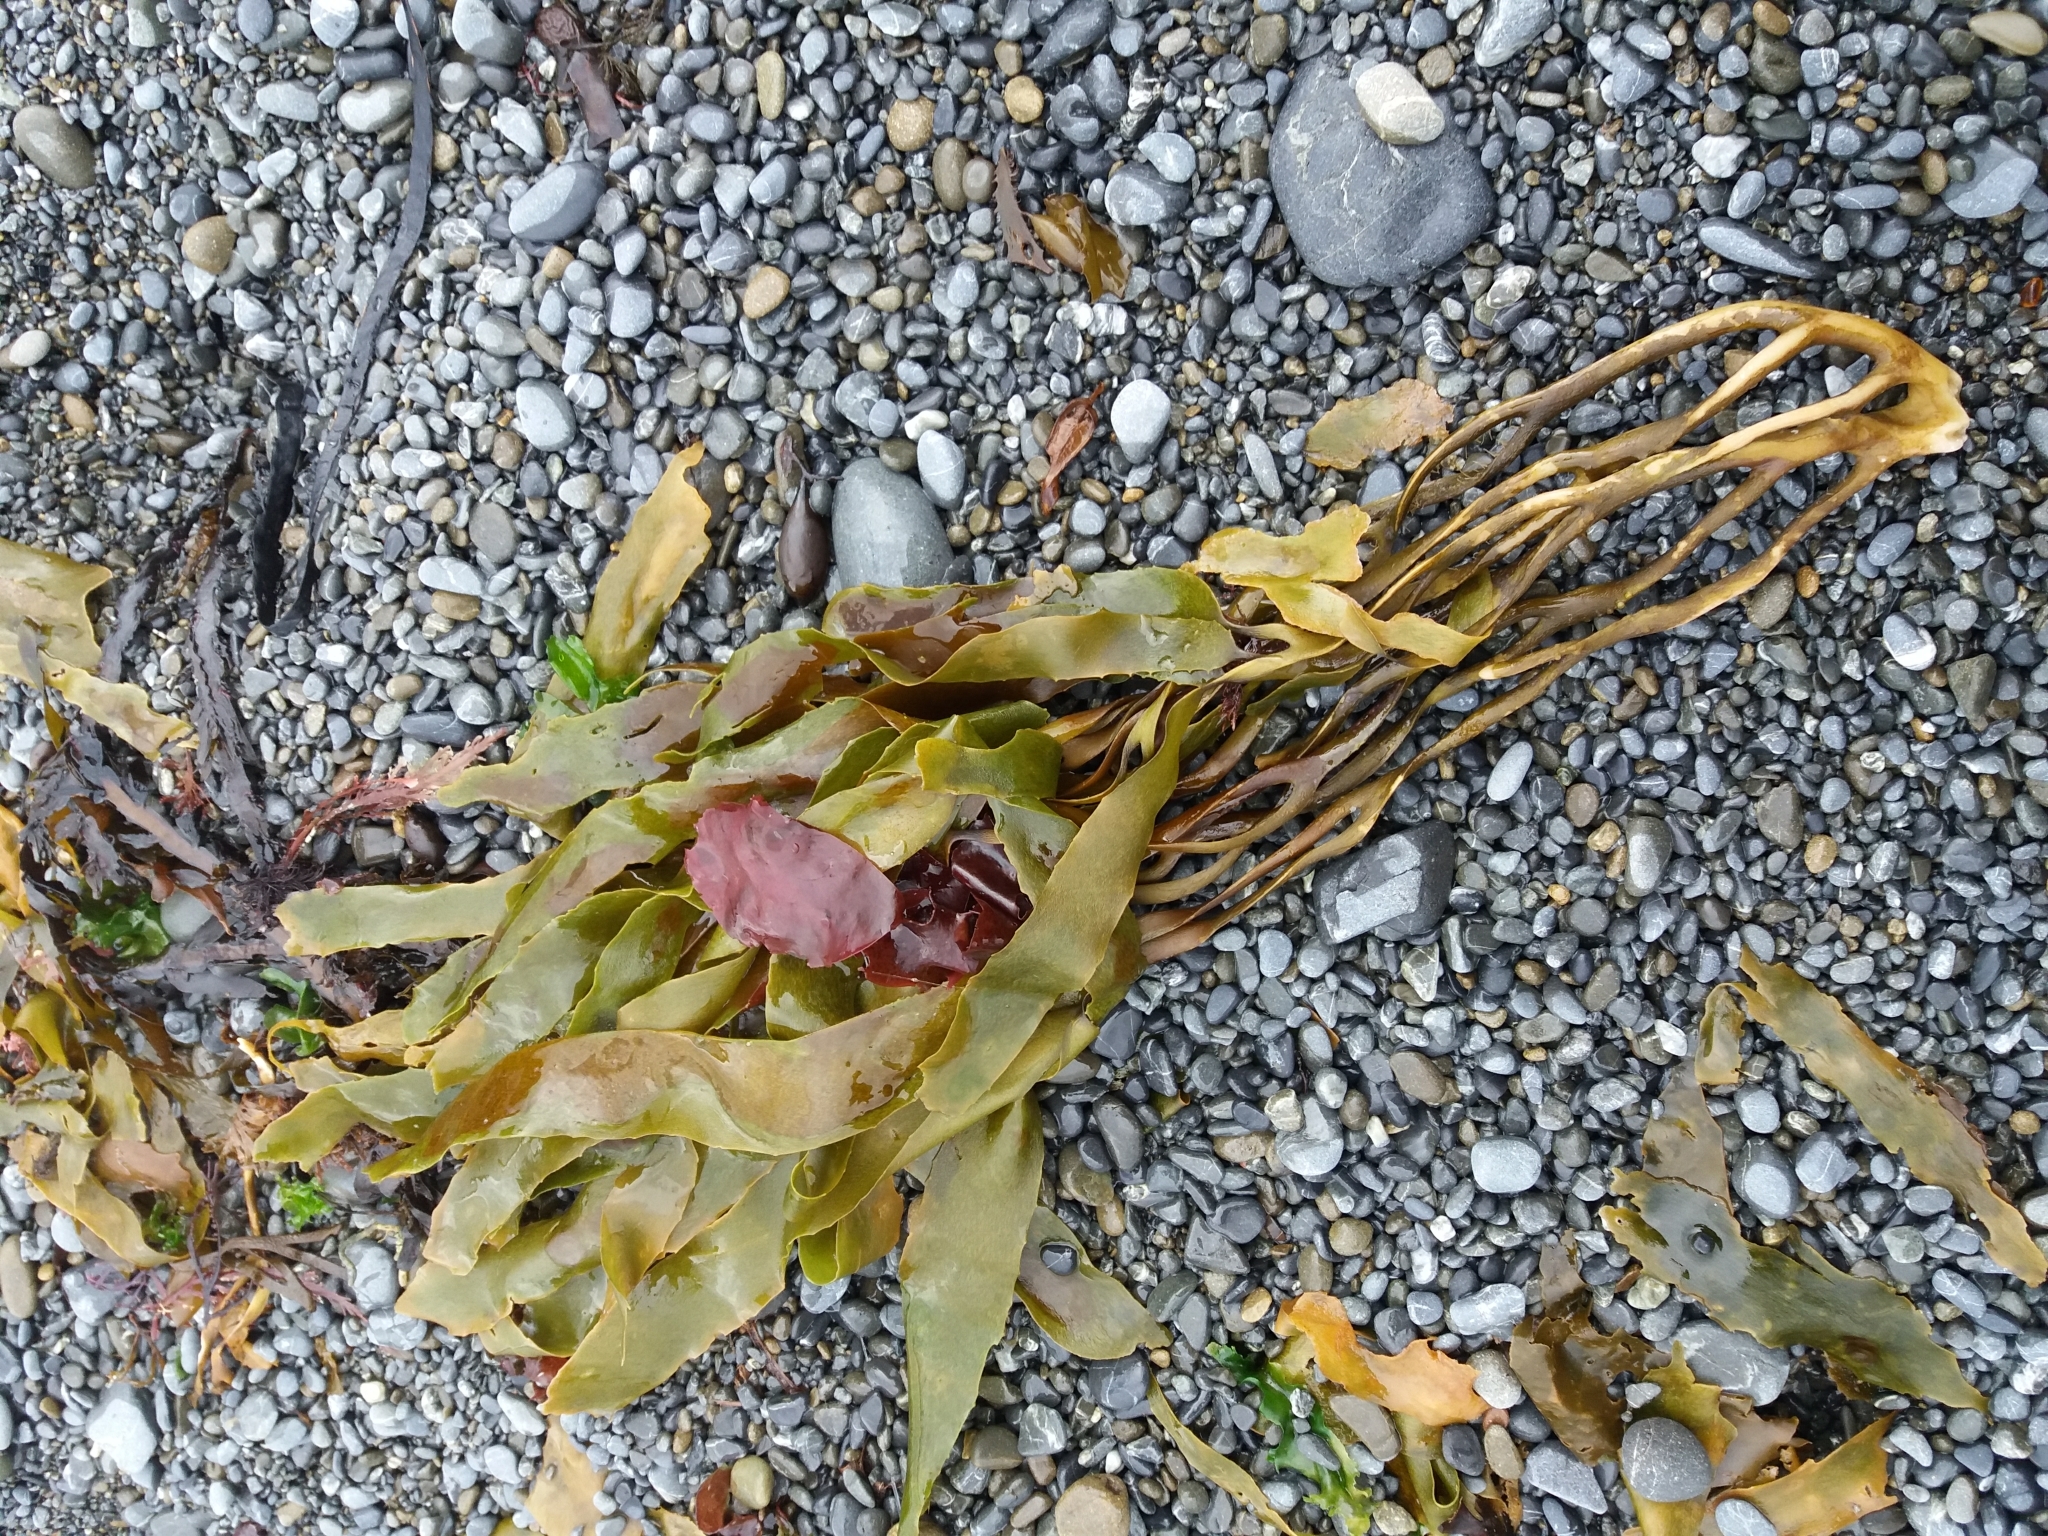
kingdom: Chromista
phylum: Ochrophyta
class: Phaeophyceae
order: Laminariales
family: Lessoniaceae
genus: Lessonia
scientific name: Lessonia variegata
